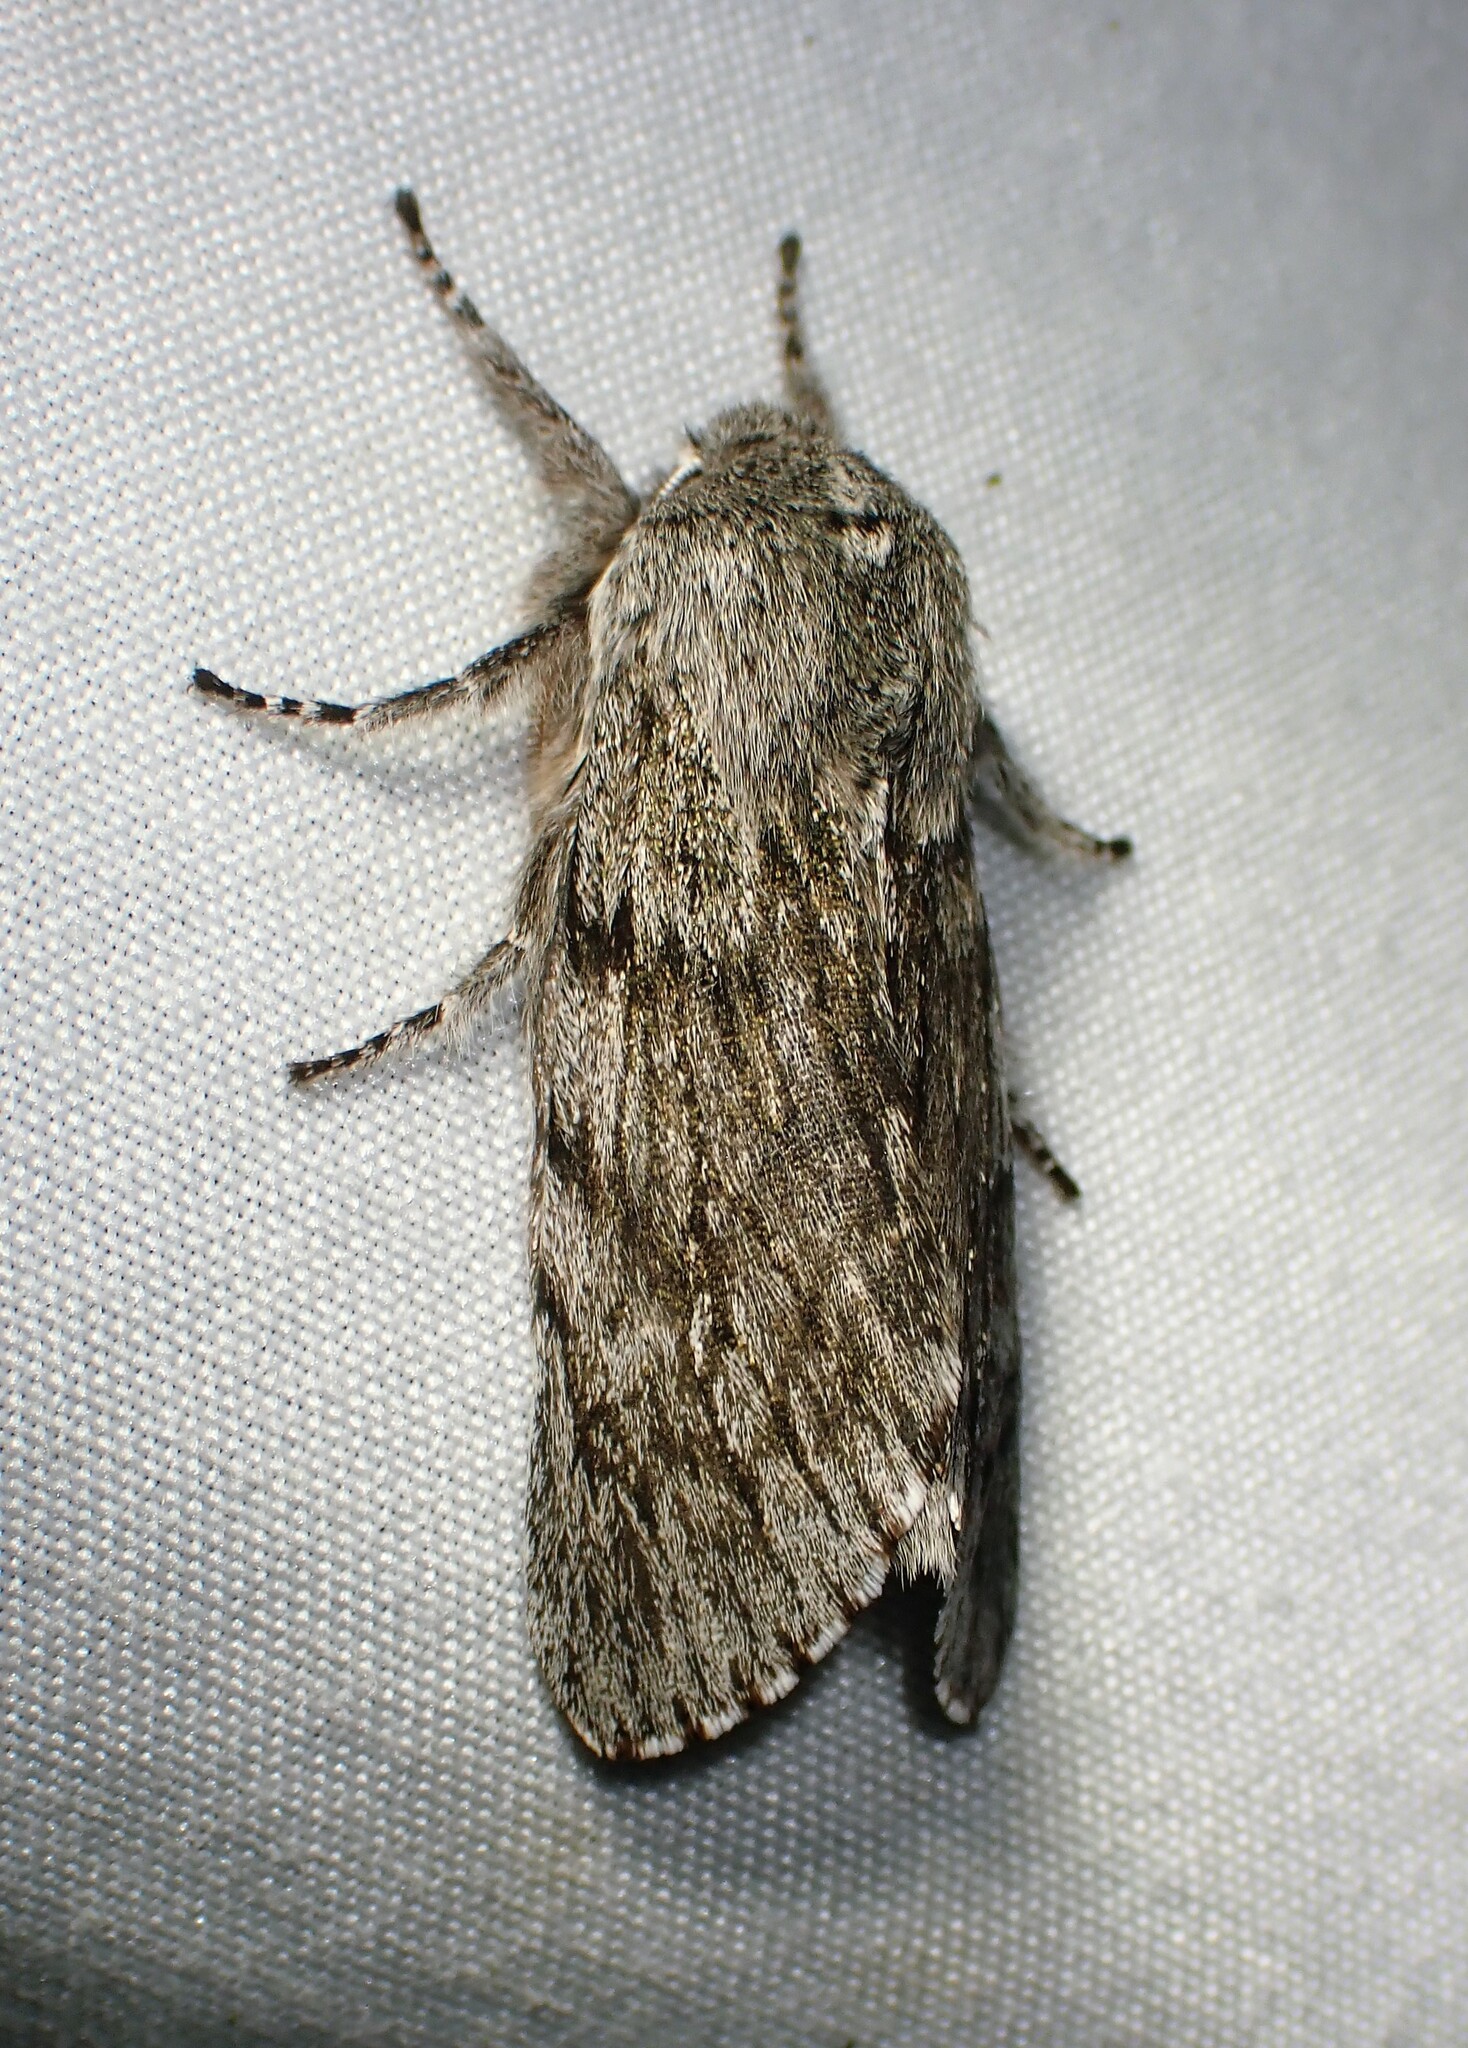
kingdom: Animalia
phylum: Arthropoda
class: Insecta
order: Lepidoptera
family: Noctuidae
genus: Brachionycha
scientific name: Brachionycha borealis
